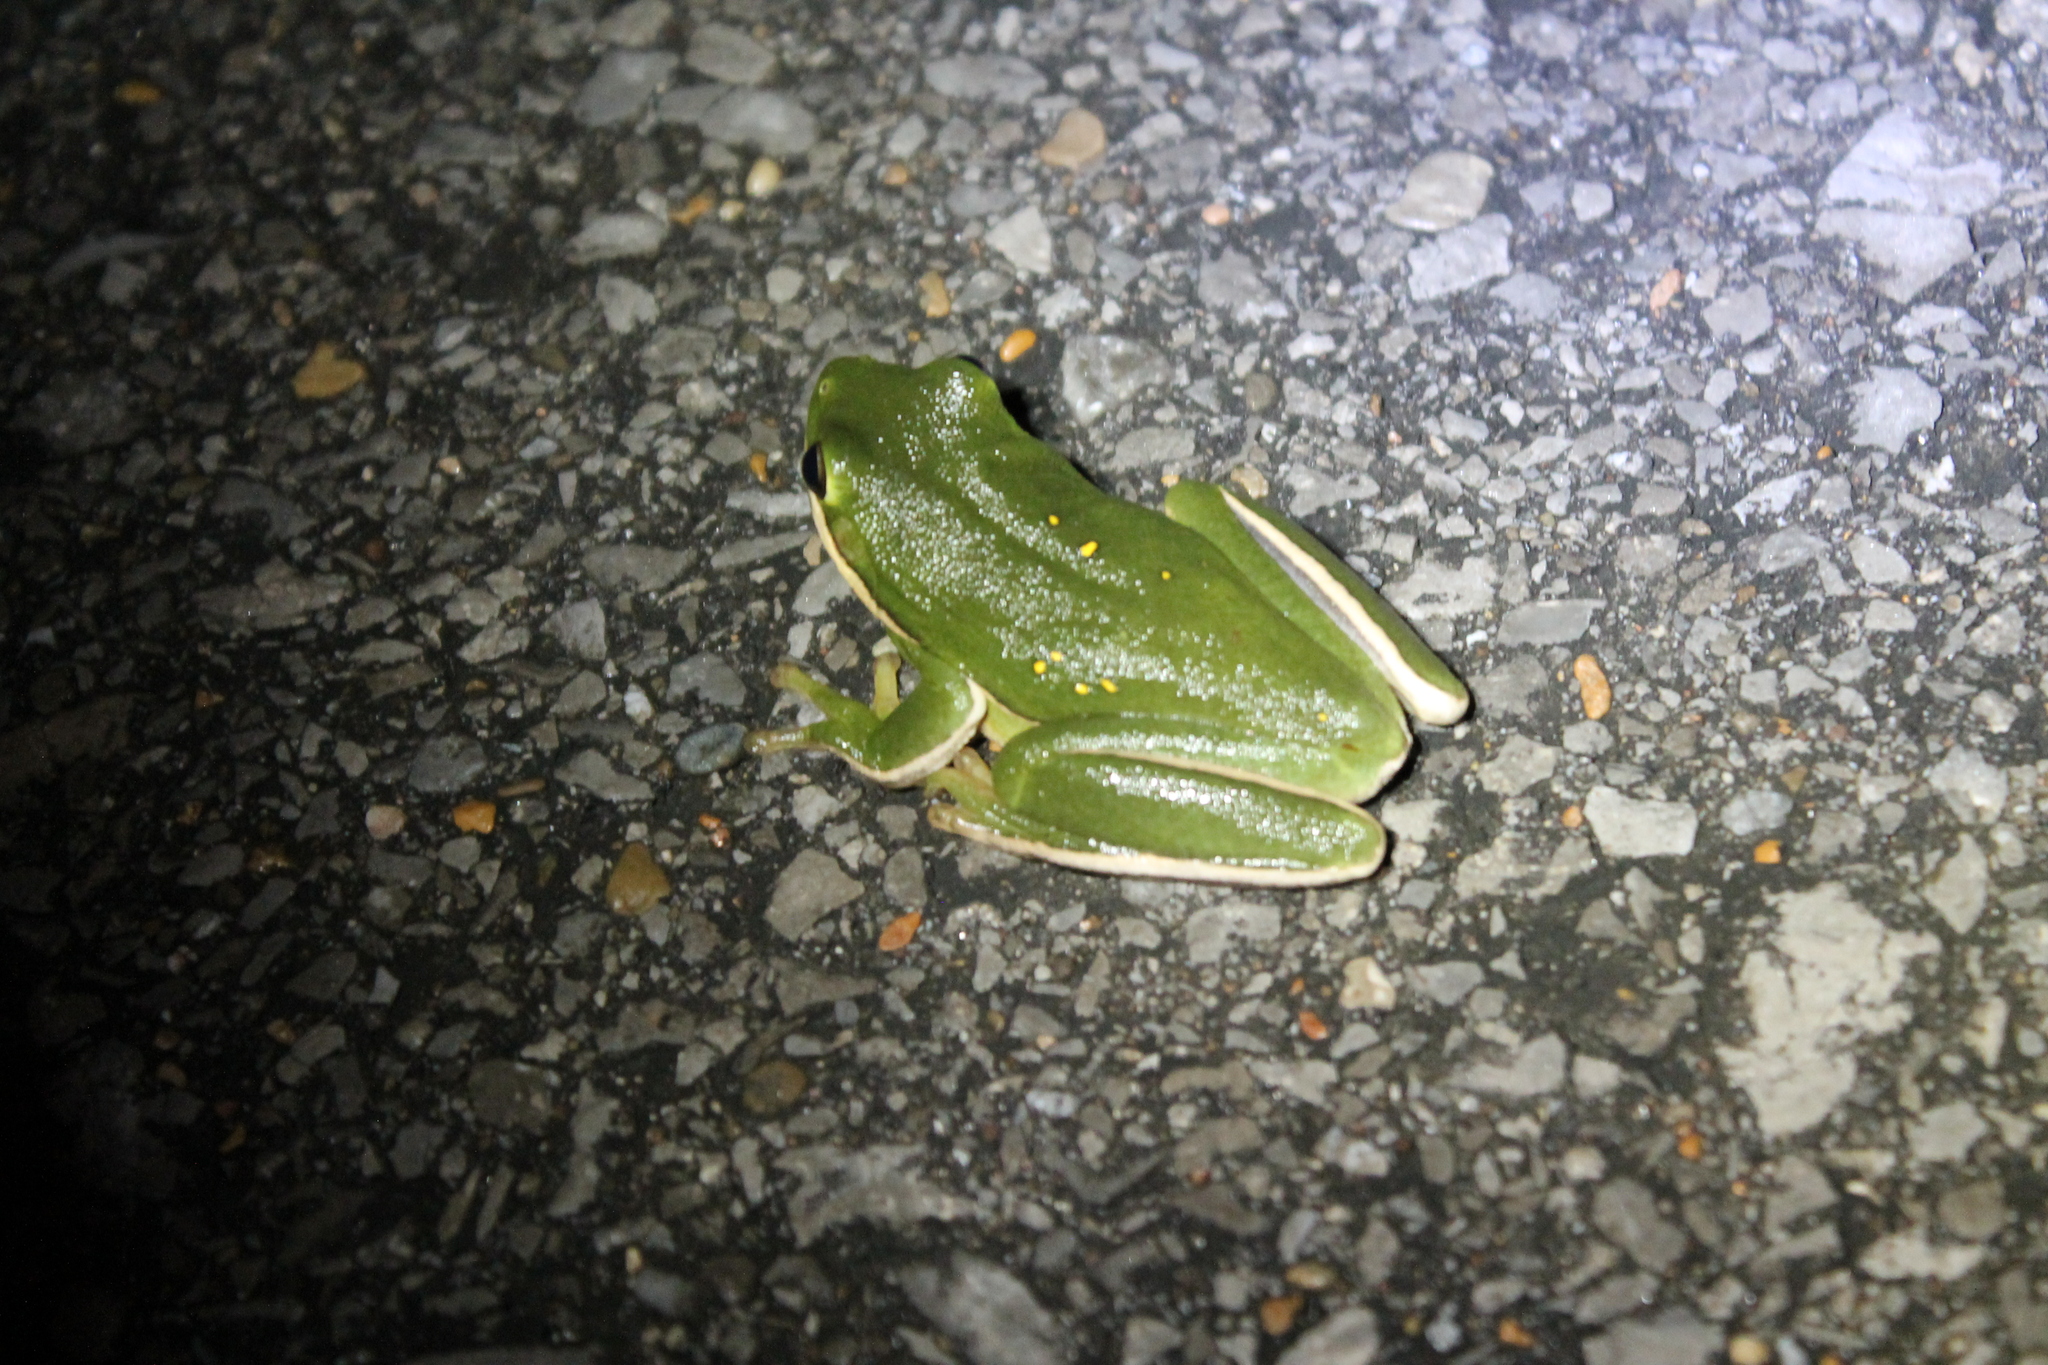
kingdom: Animalia
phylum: Chordata
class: Amphibia
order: Anura
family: Hylidae
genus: Dryophytes
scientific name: Dryophytes cinereus
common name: Green treefrog
